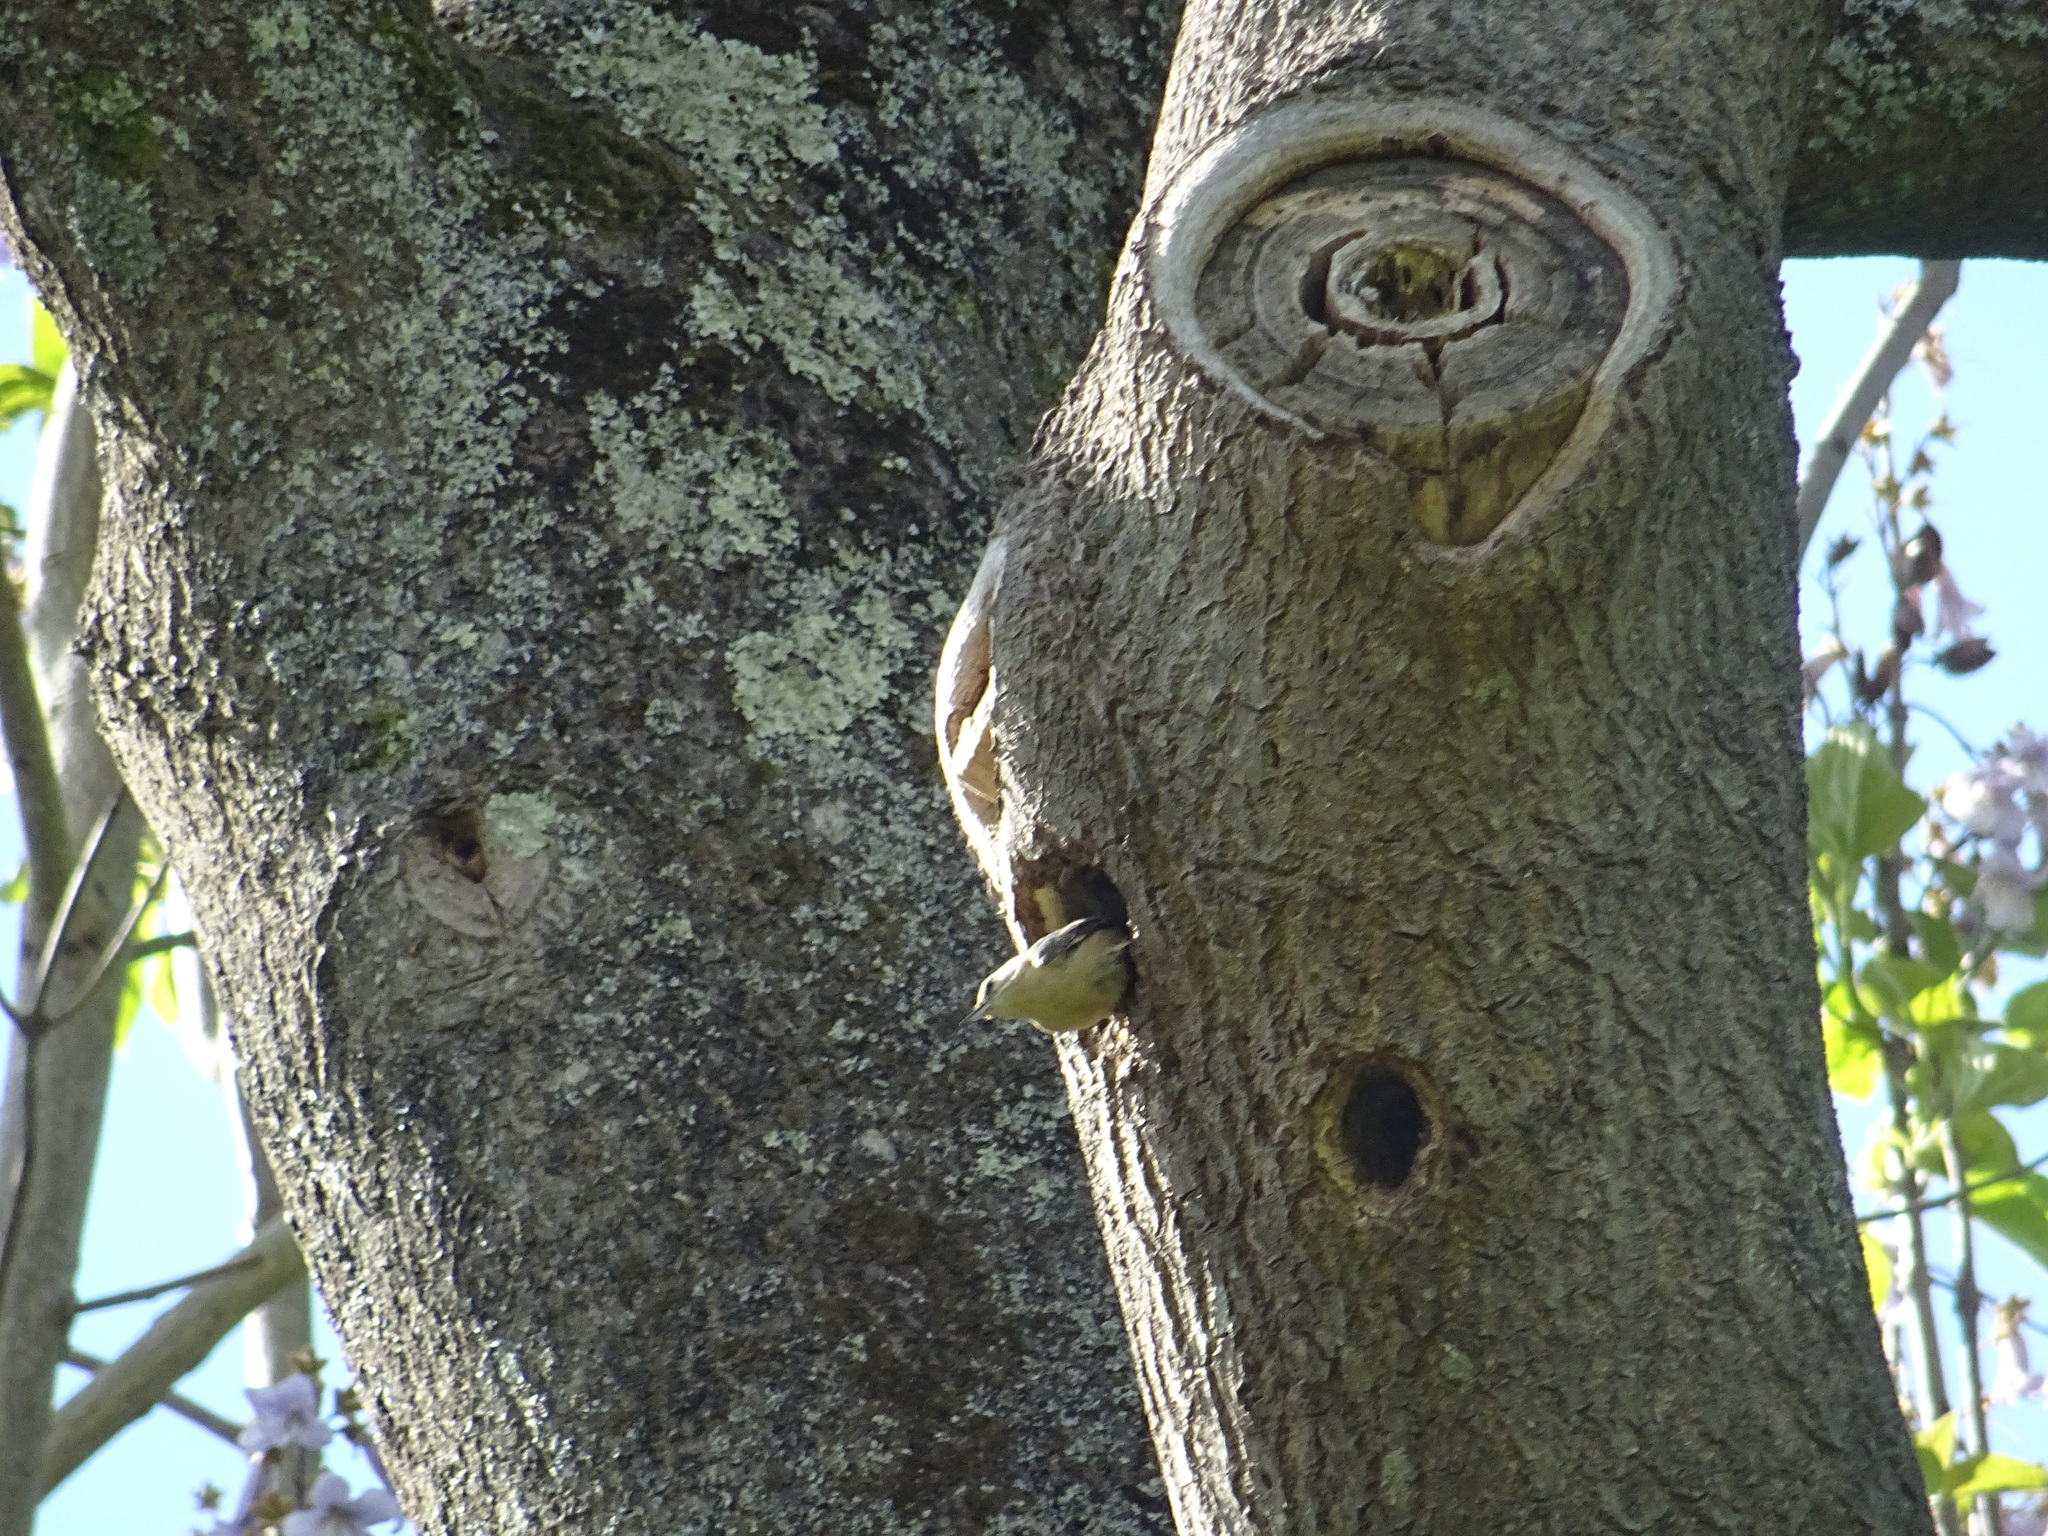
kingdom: Animalia
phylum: Chordata
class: Aves
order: Passeriformes
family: Sittidae
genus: Sitta
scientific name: Sitta europaea
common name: Eurasian nuthatch
